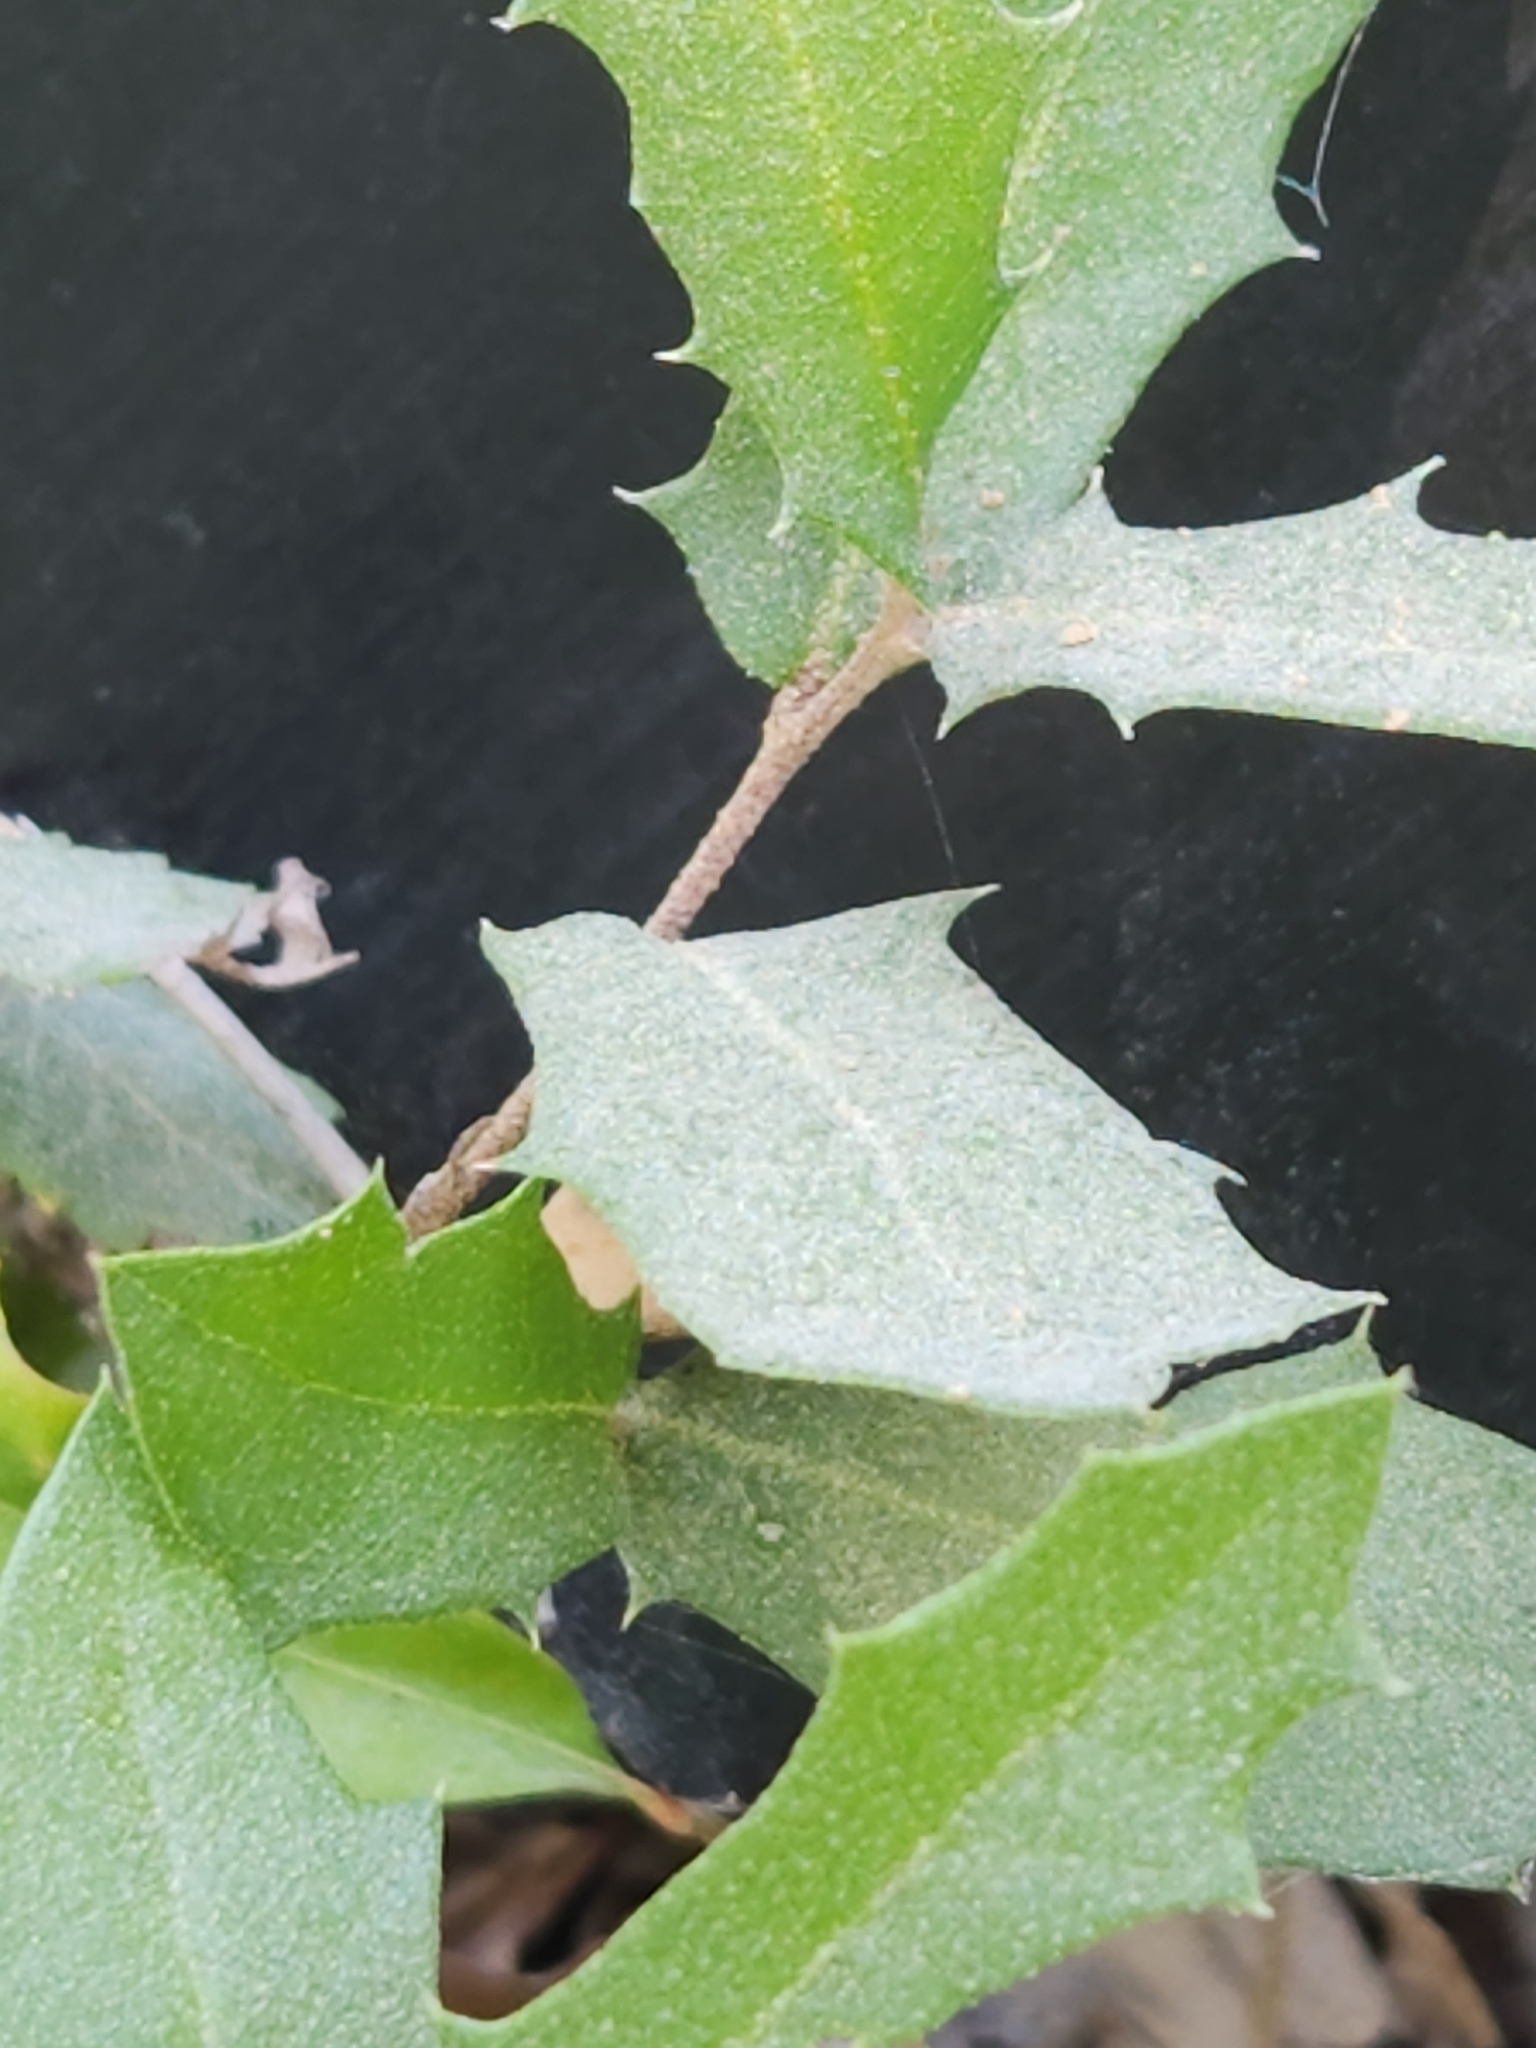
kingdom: Plantae
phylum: Tracheophyta
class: Magnoliopsida
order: Fagales
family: Fagaceae
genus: Quercus
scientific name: Quercus fusiformis
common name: Texas live oak
